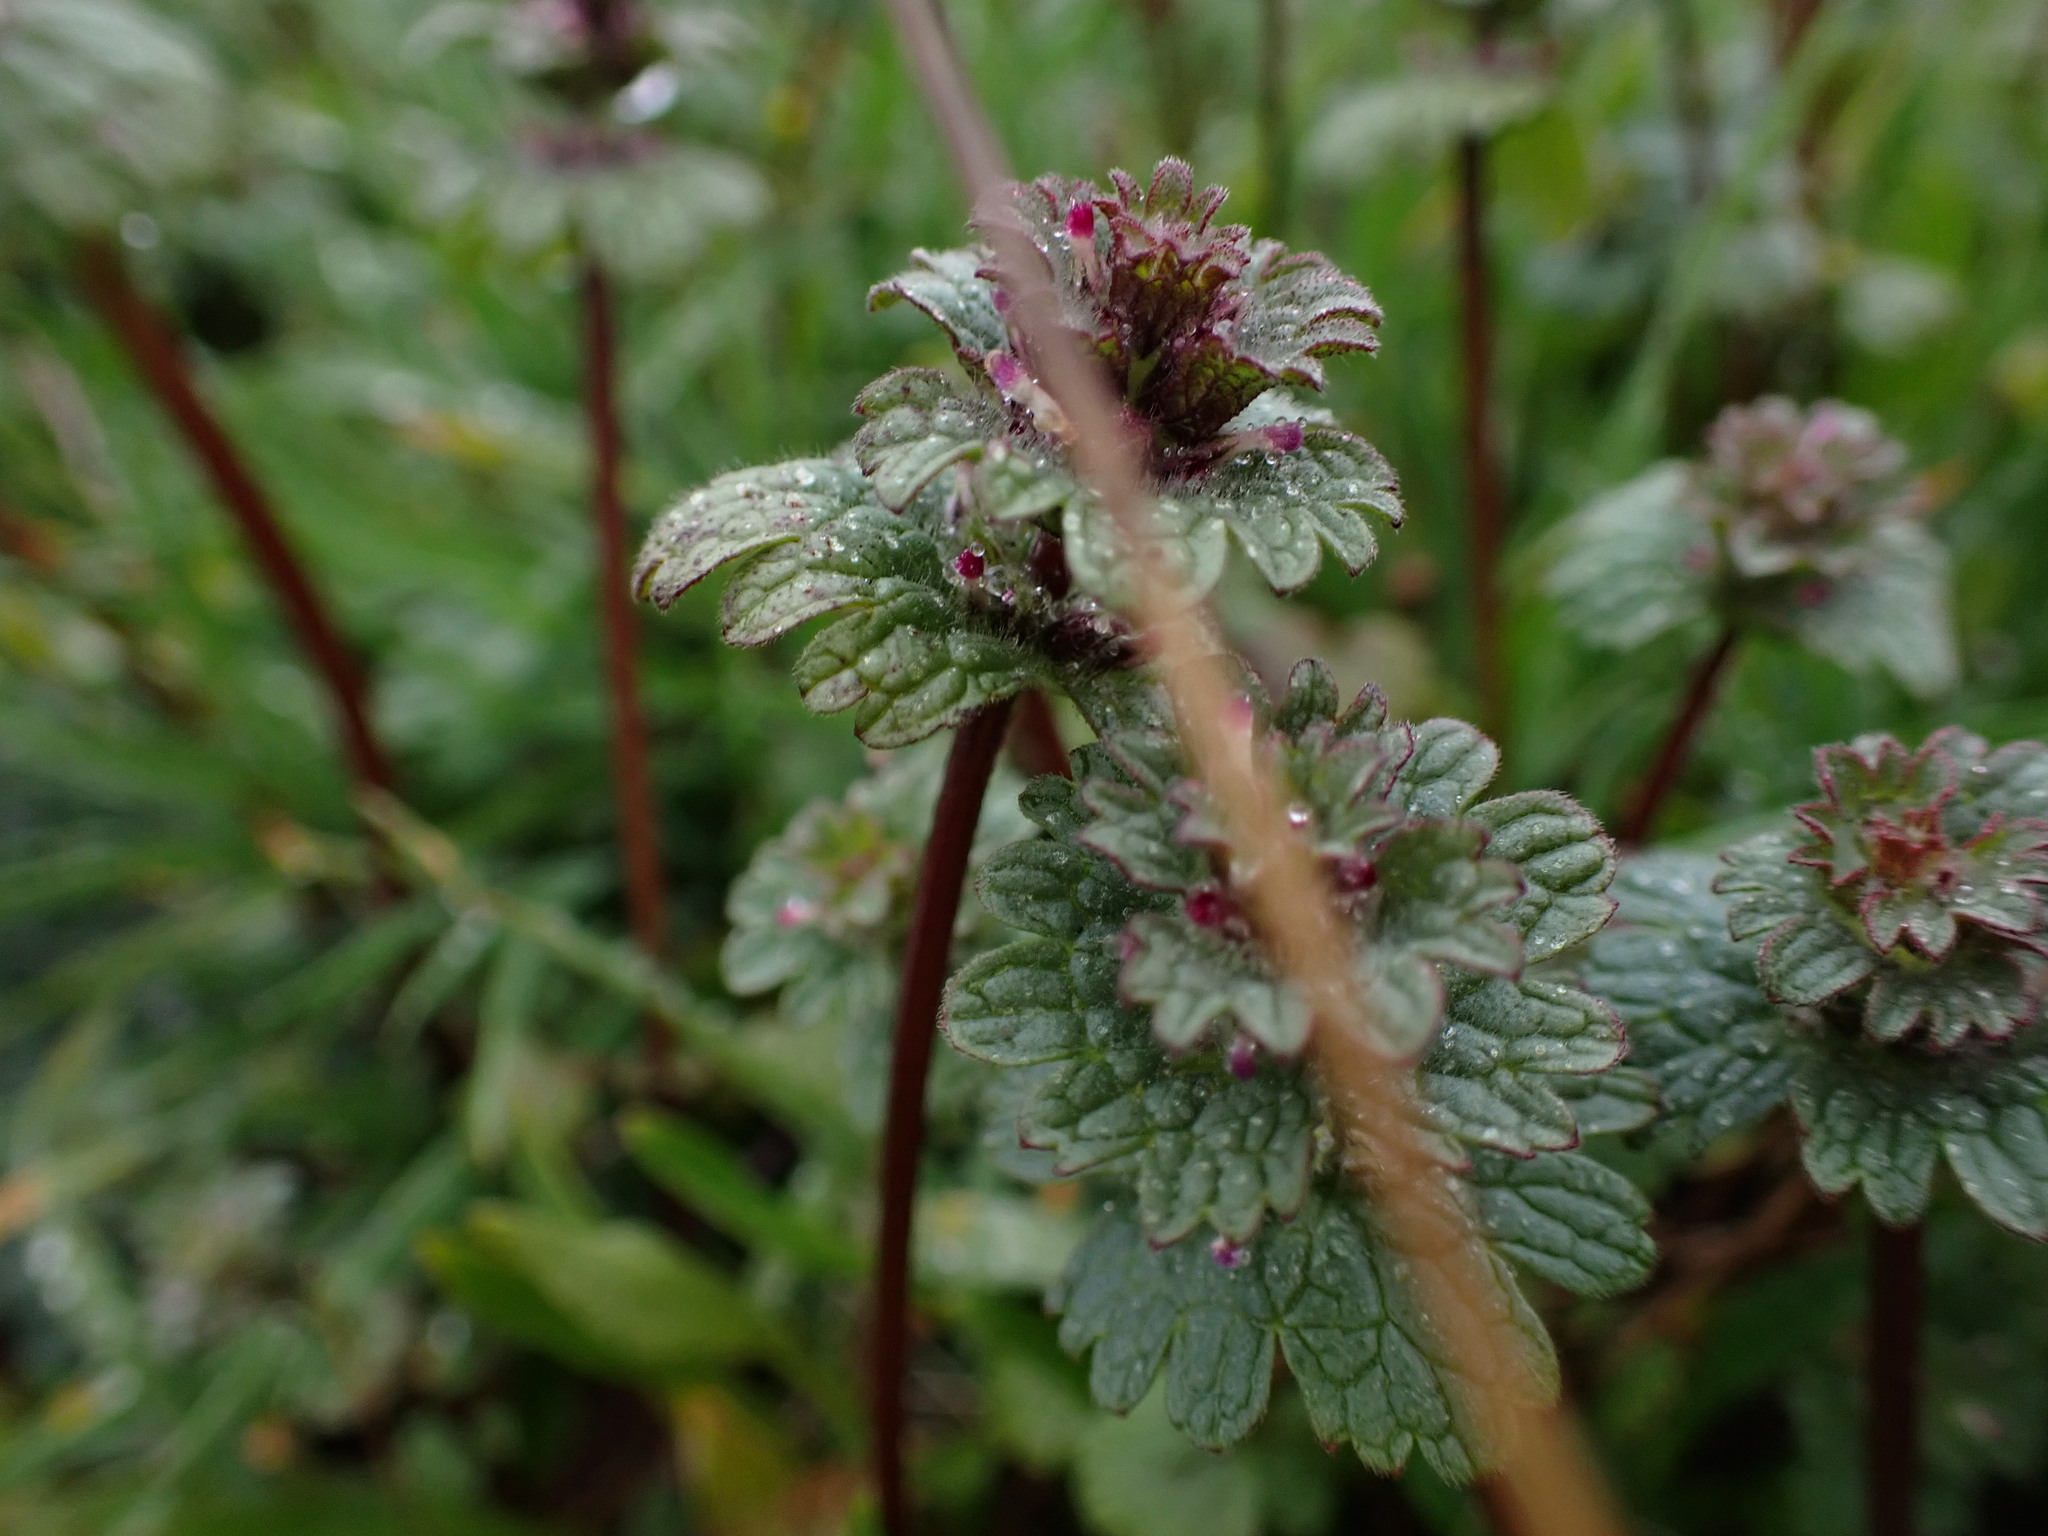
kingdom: Plantae
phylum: Tracheophyta
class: Magnoliopsida
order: Lamiales
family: Lamiaceae
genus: Lamium
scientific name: Lamium amplexicaule
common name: Henbit dead-nettle
